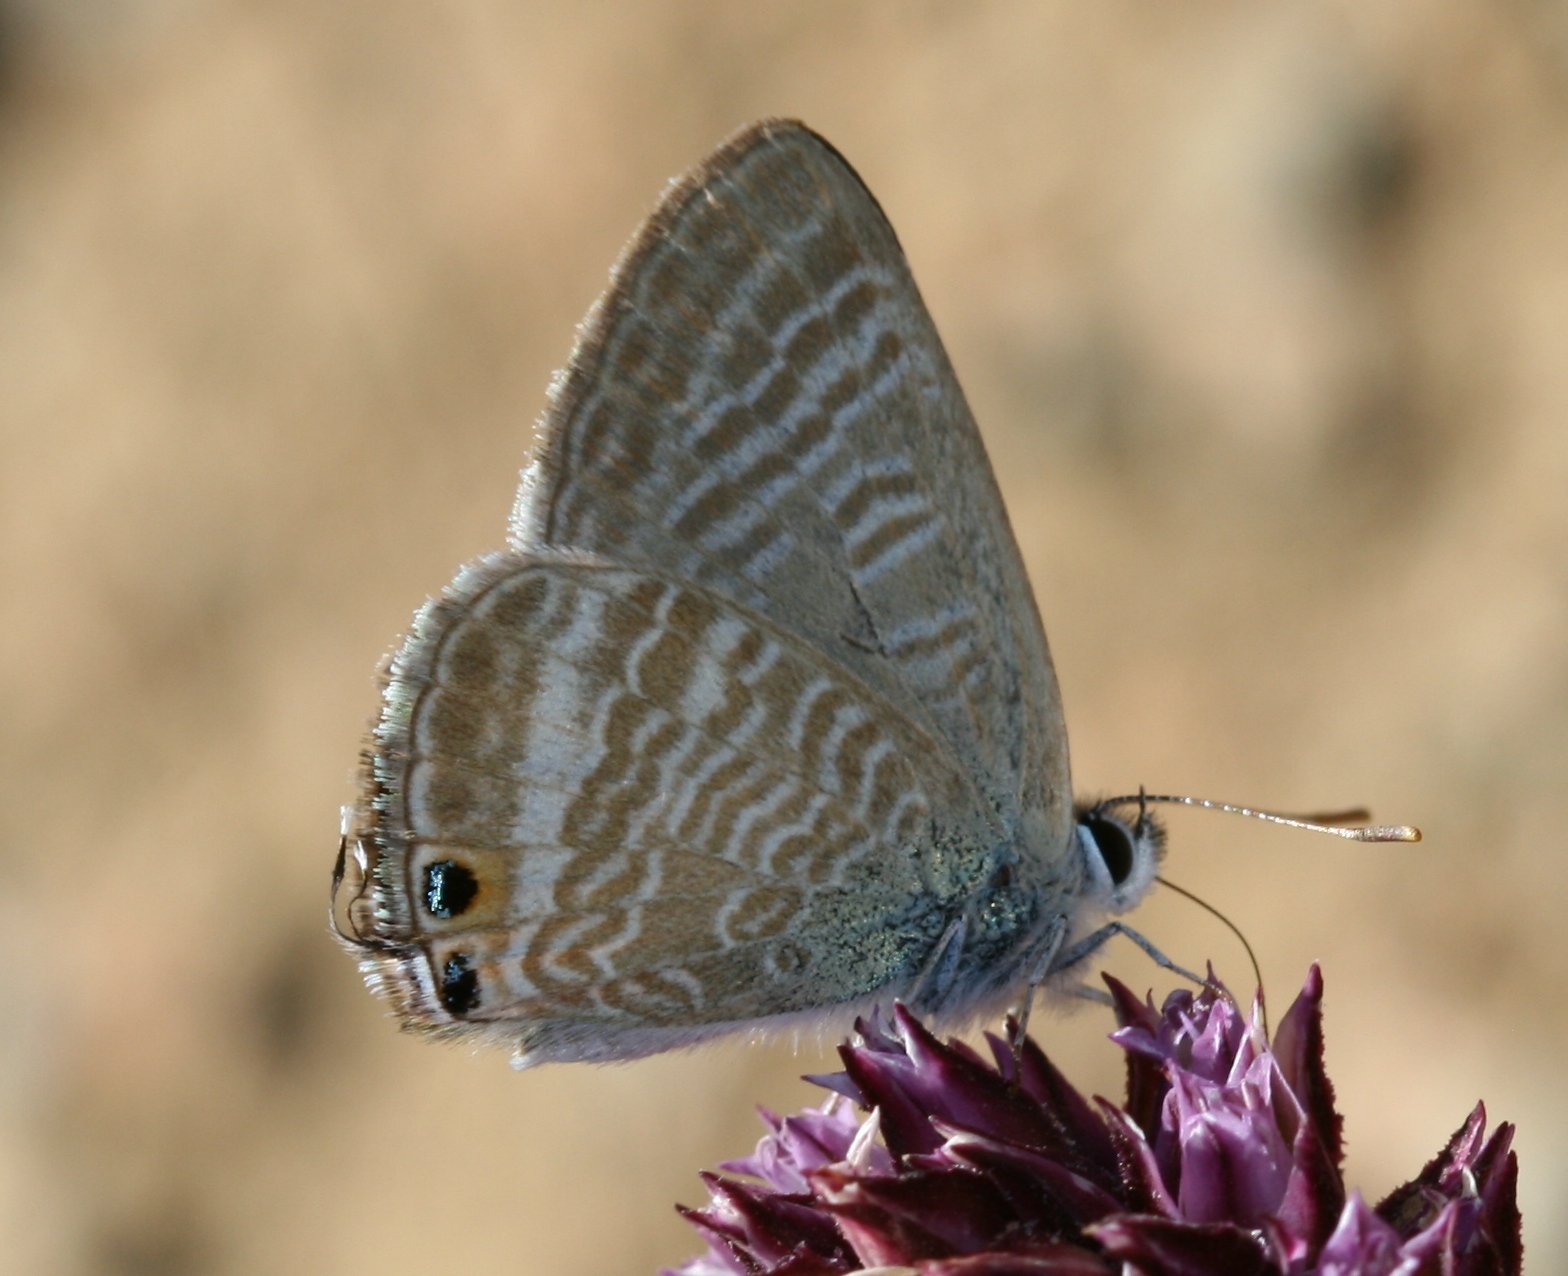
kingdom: Animalia
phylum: Arthropoda
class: Insecta
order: Lepidoptera
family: Lycaenidae
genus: Lampides
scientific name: Lampides boeticus
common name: Long-tailed blue
